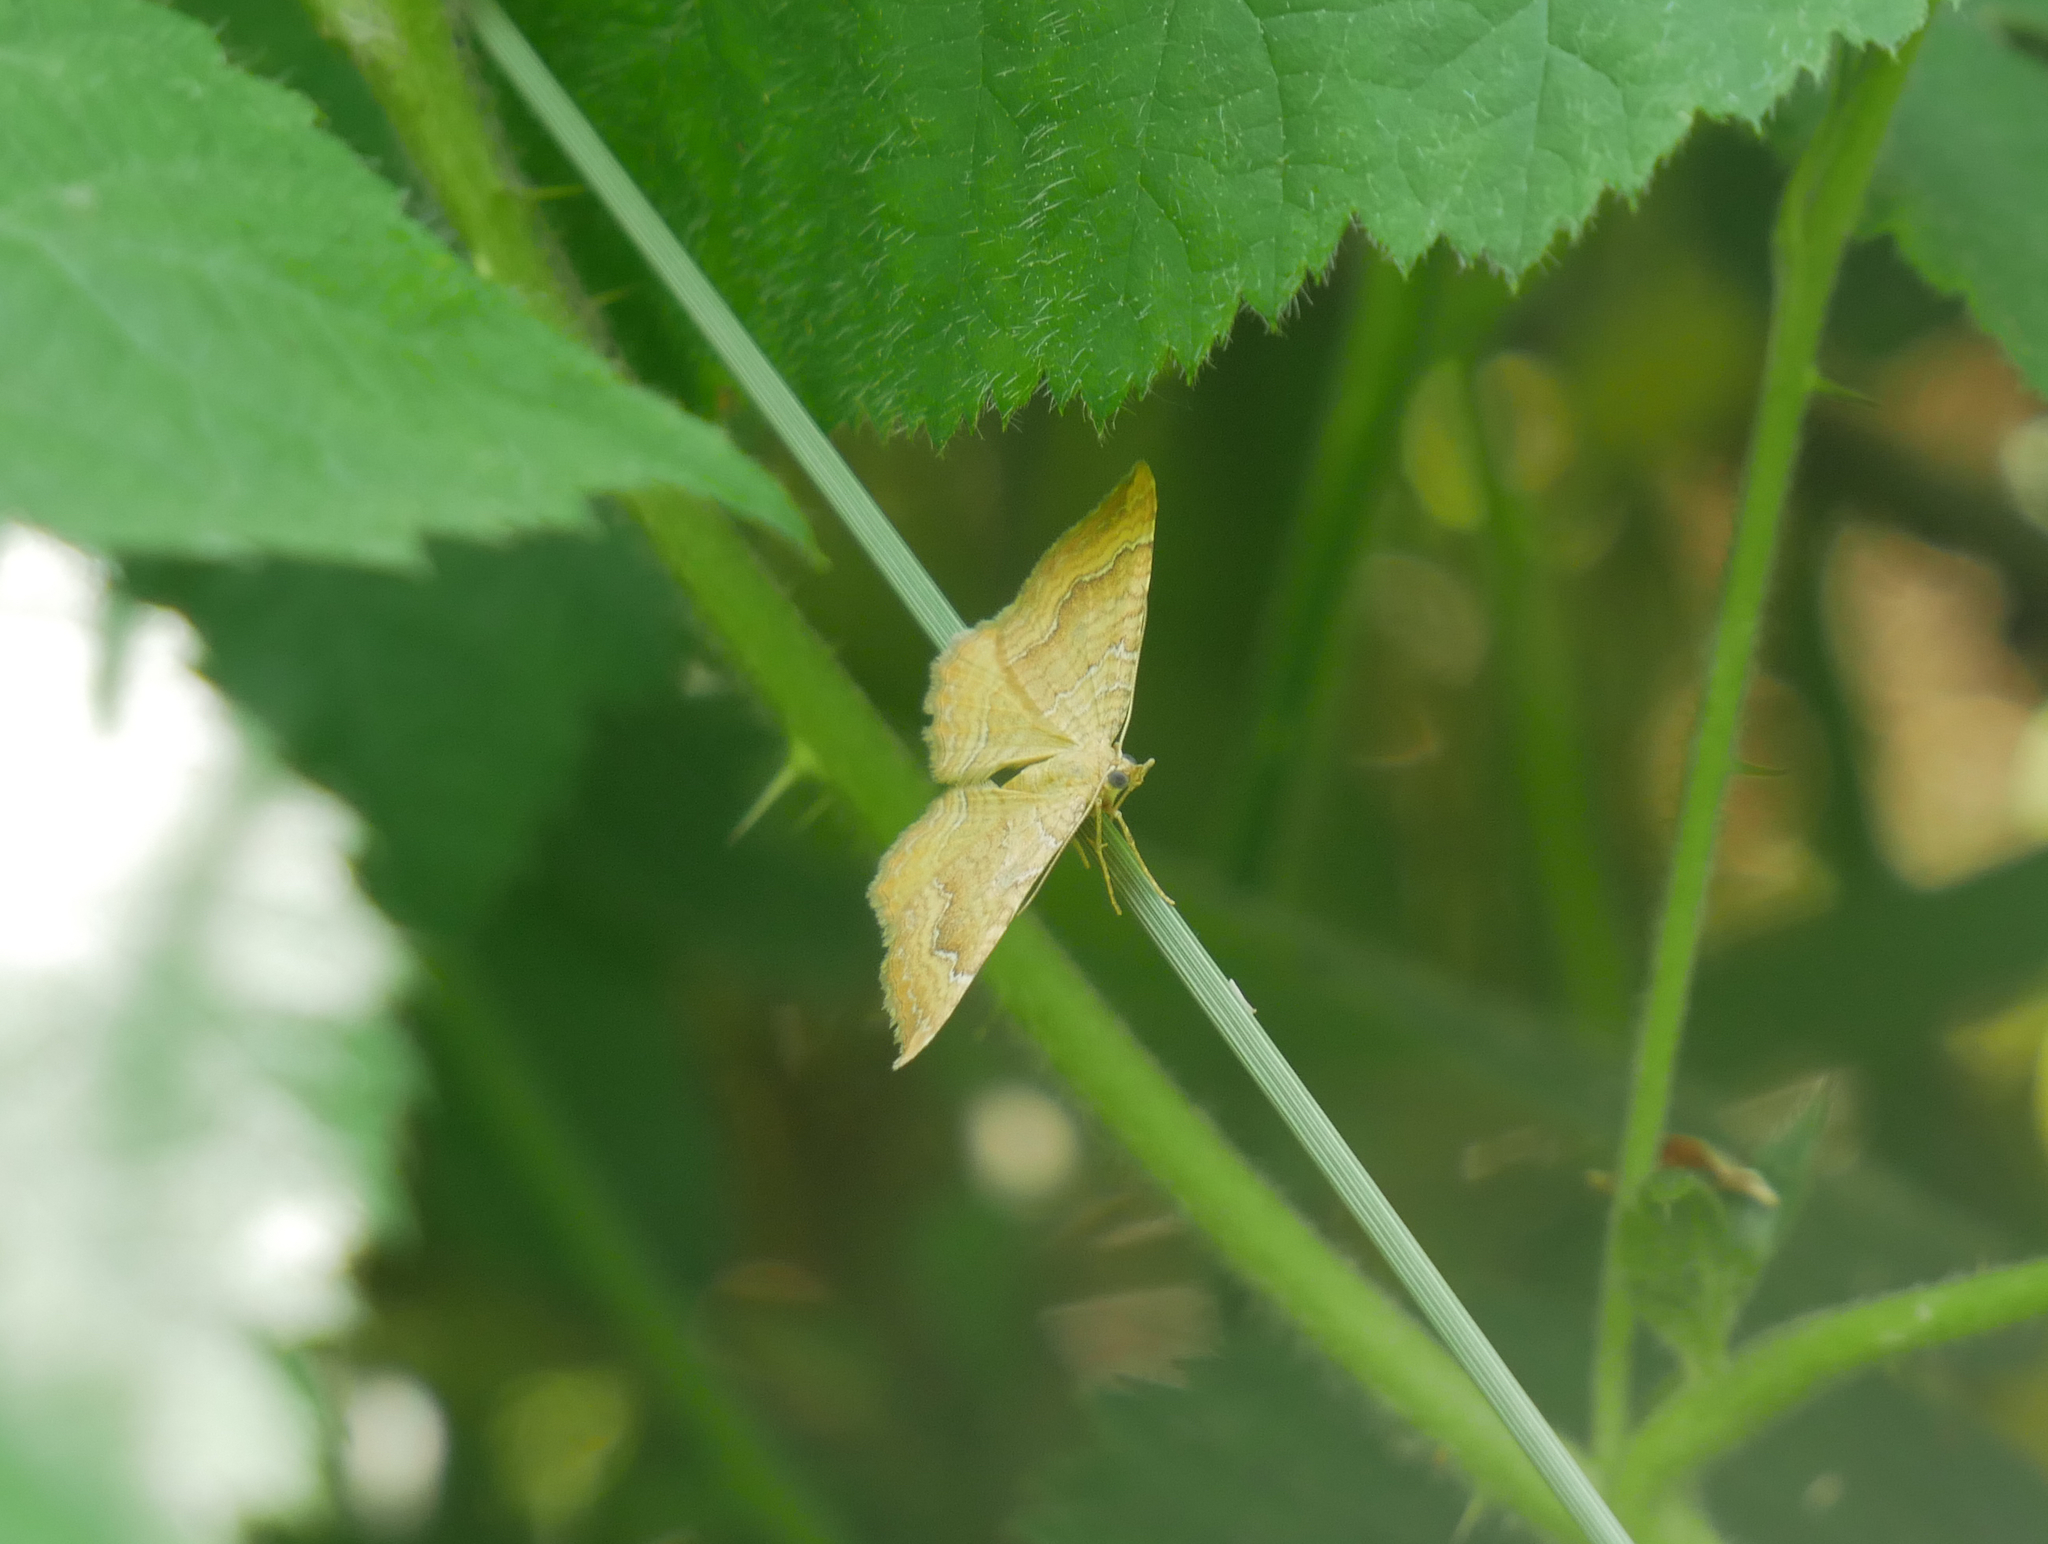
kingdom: Animalia
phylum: Arthropoda
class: Insecta
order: Lepidoptera
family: Geometridae
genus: Camptogramma
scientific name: Camptogramma bilineata
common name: Yellow shell
